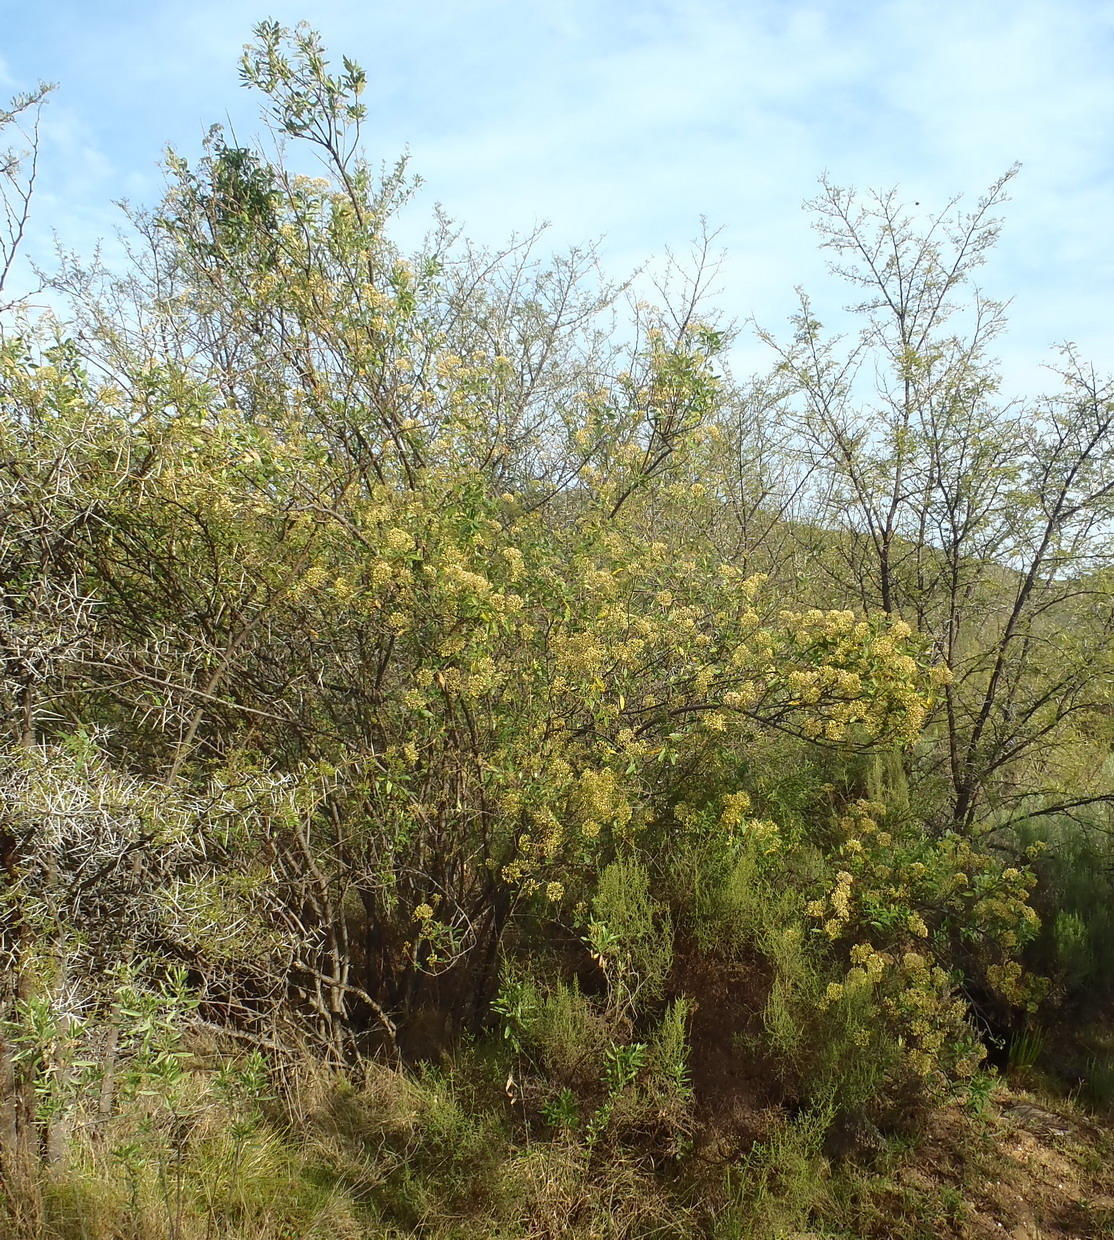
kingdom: Plantae
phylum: Tracheophyta
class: Magnoliopsida
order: Apiales
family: Apiaceae
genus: Heteromorpha
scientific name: Heteromorpha arborescens
